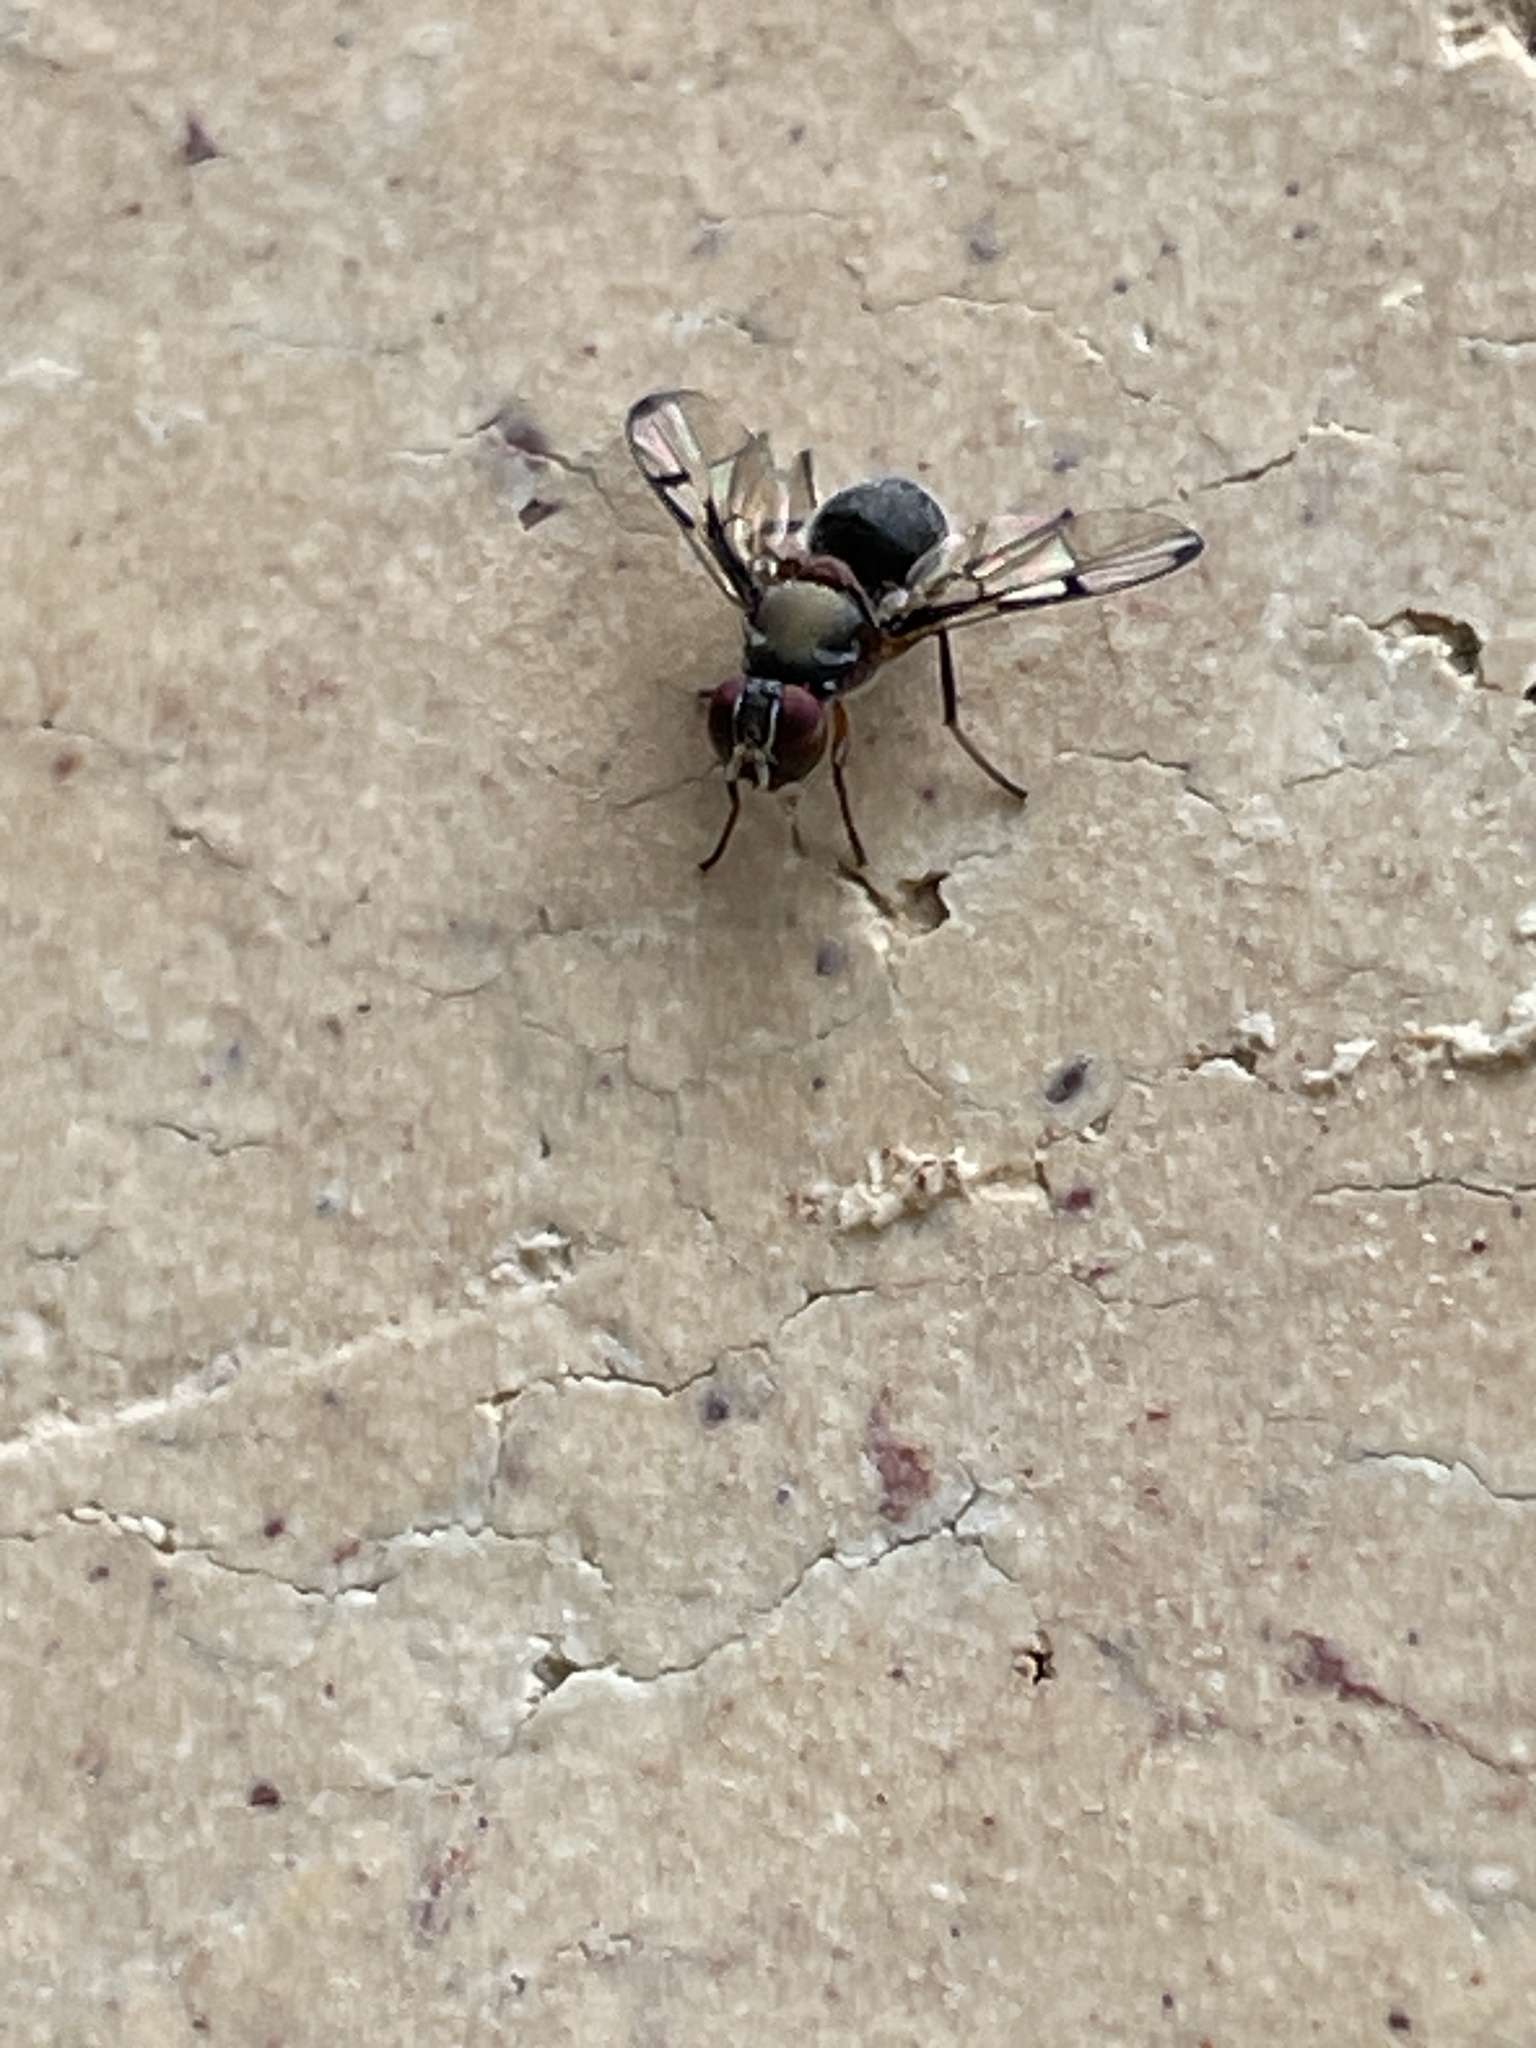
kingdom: Animalia
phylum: Arthropoda
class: Insecta
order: Diptera
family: Platystomatidae
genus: Pogonortalis
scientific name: Pogonortalis doclea
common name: Boatman fly
